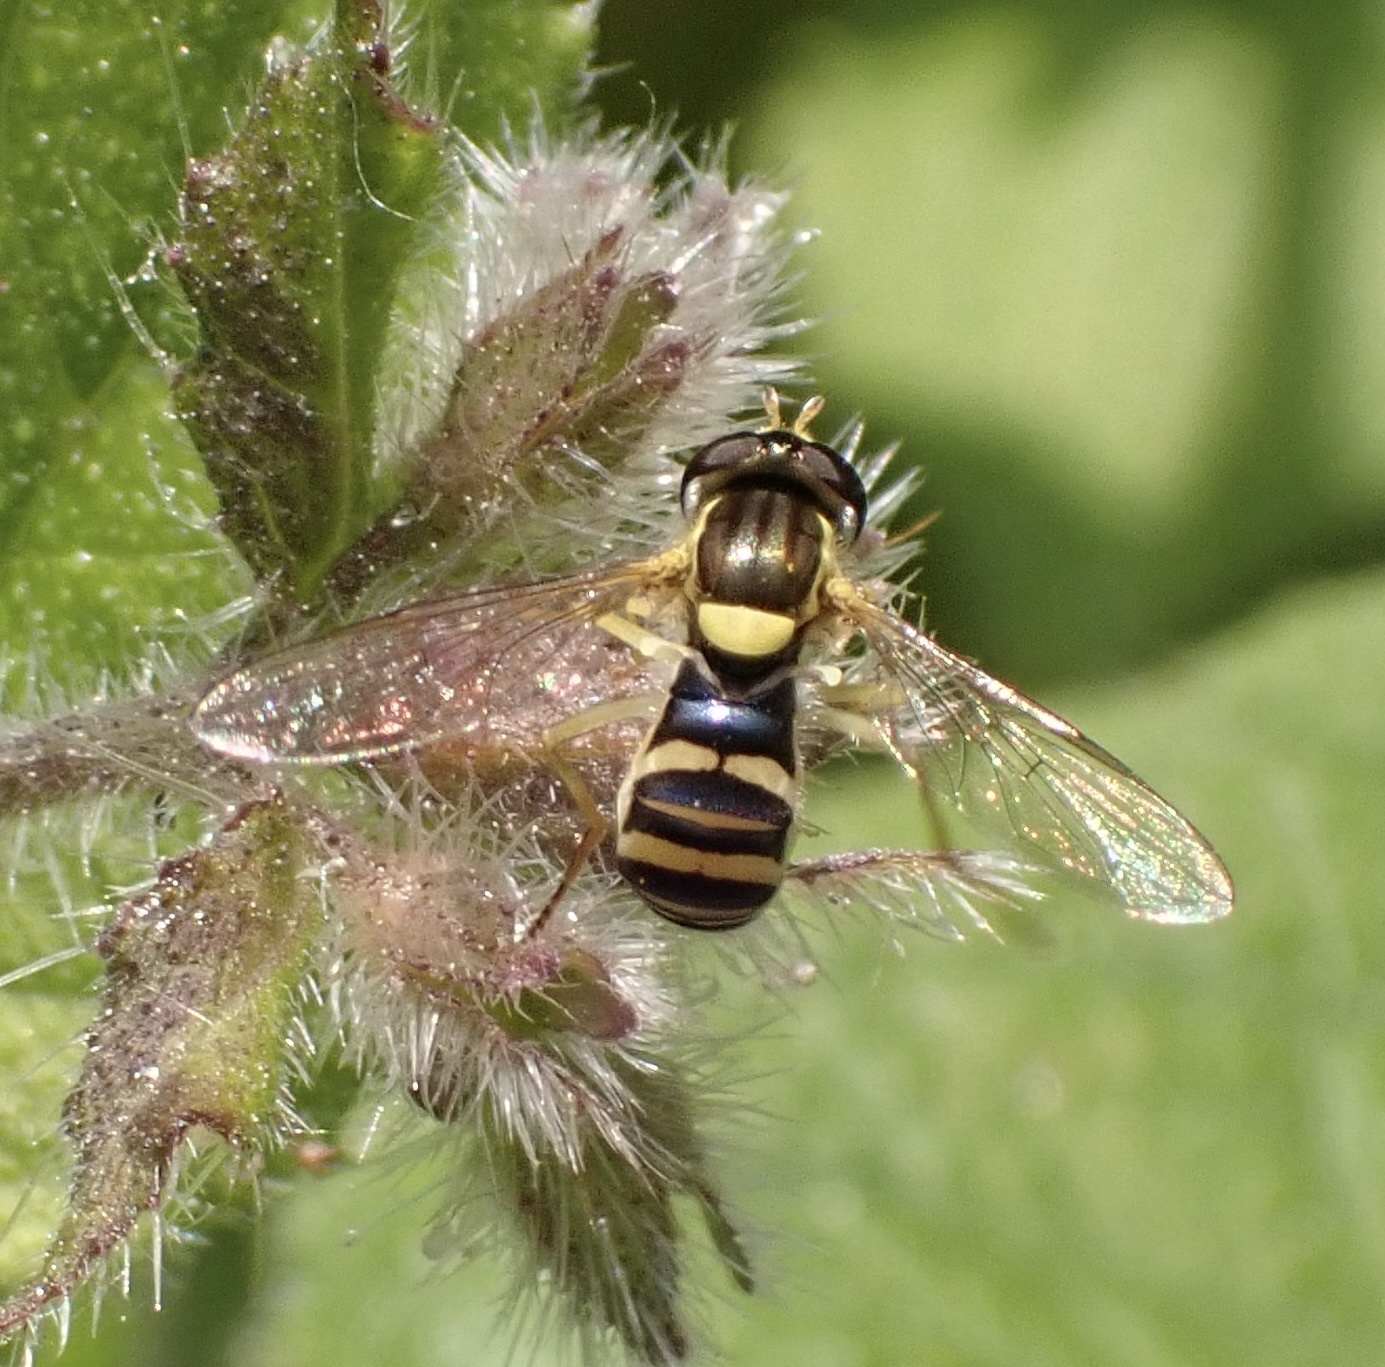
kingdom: Animalia
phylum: Arthropoda
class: Insecta
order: Diptera
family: Syrphidae
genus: Sphaerophoria
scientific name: Sphaerophoria
